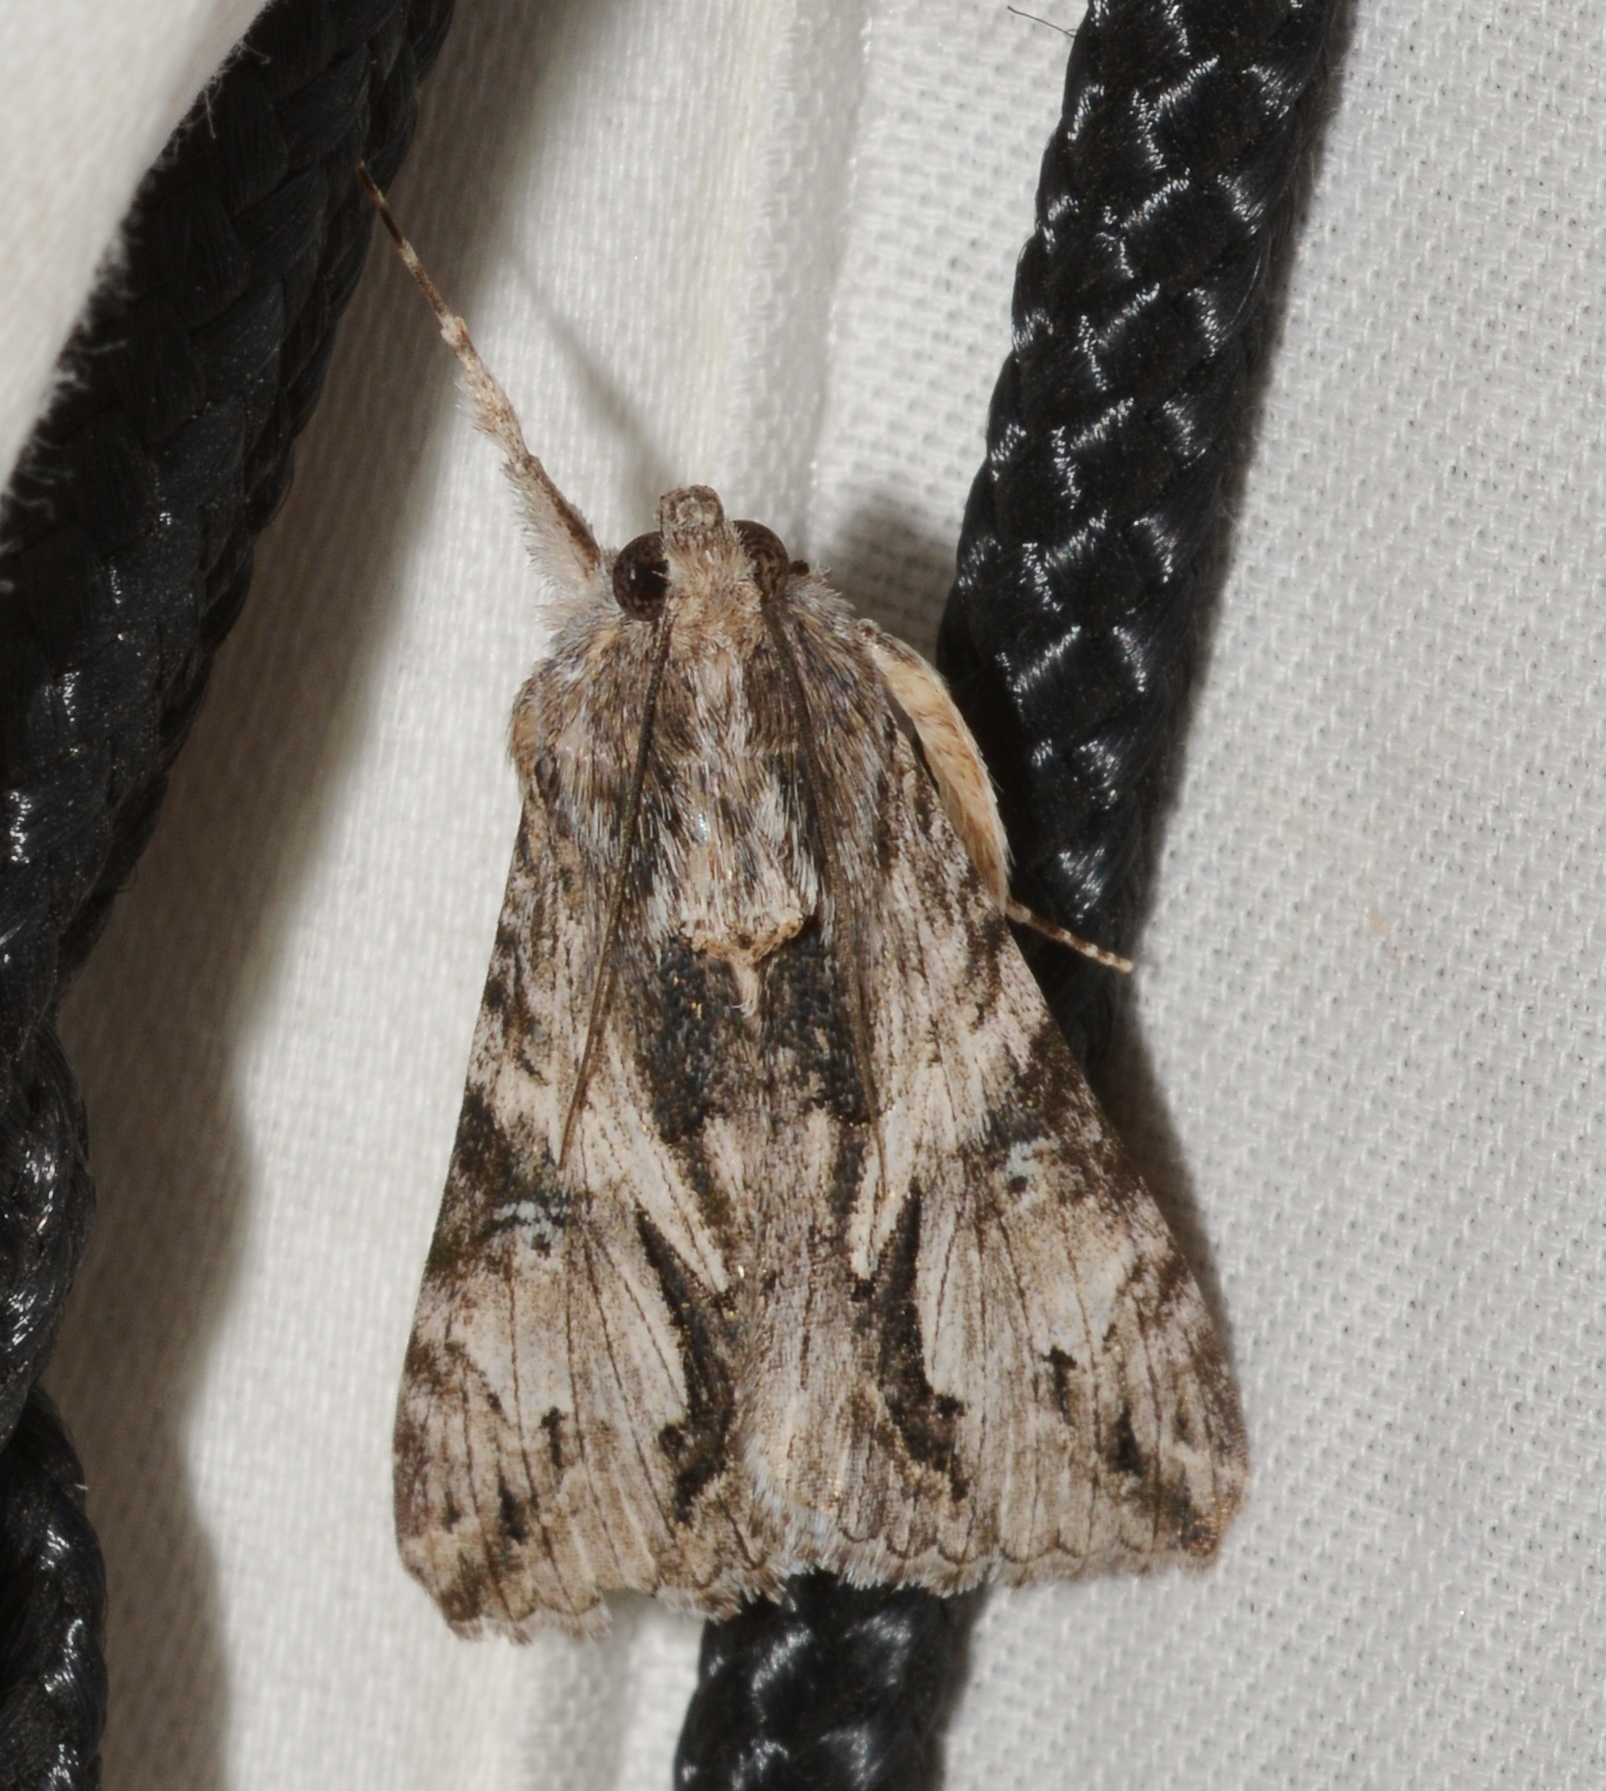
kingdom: Animalia
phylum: Arthropoda
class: Insecta
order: Lepidoptera
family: Erebidae
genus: Melipotis
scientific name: Melipotis jucunda
